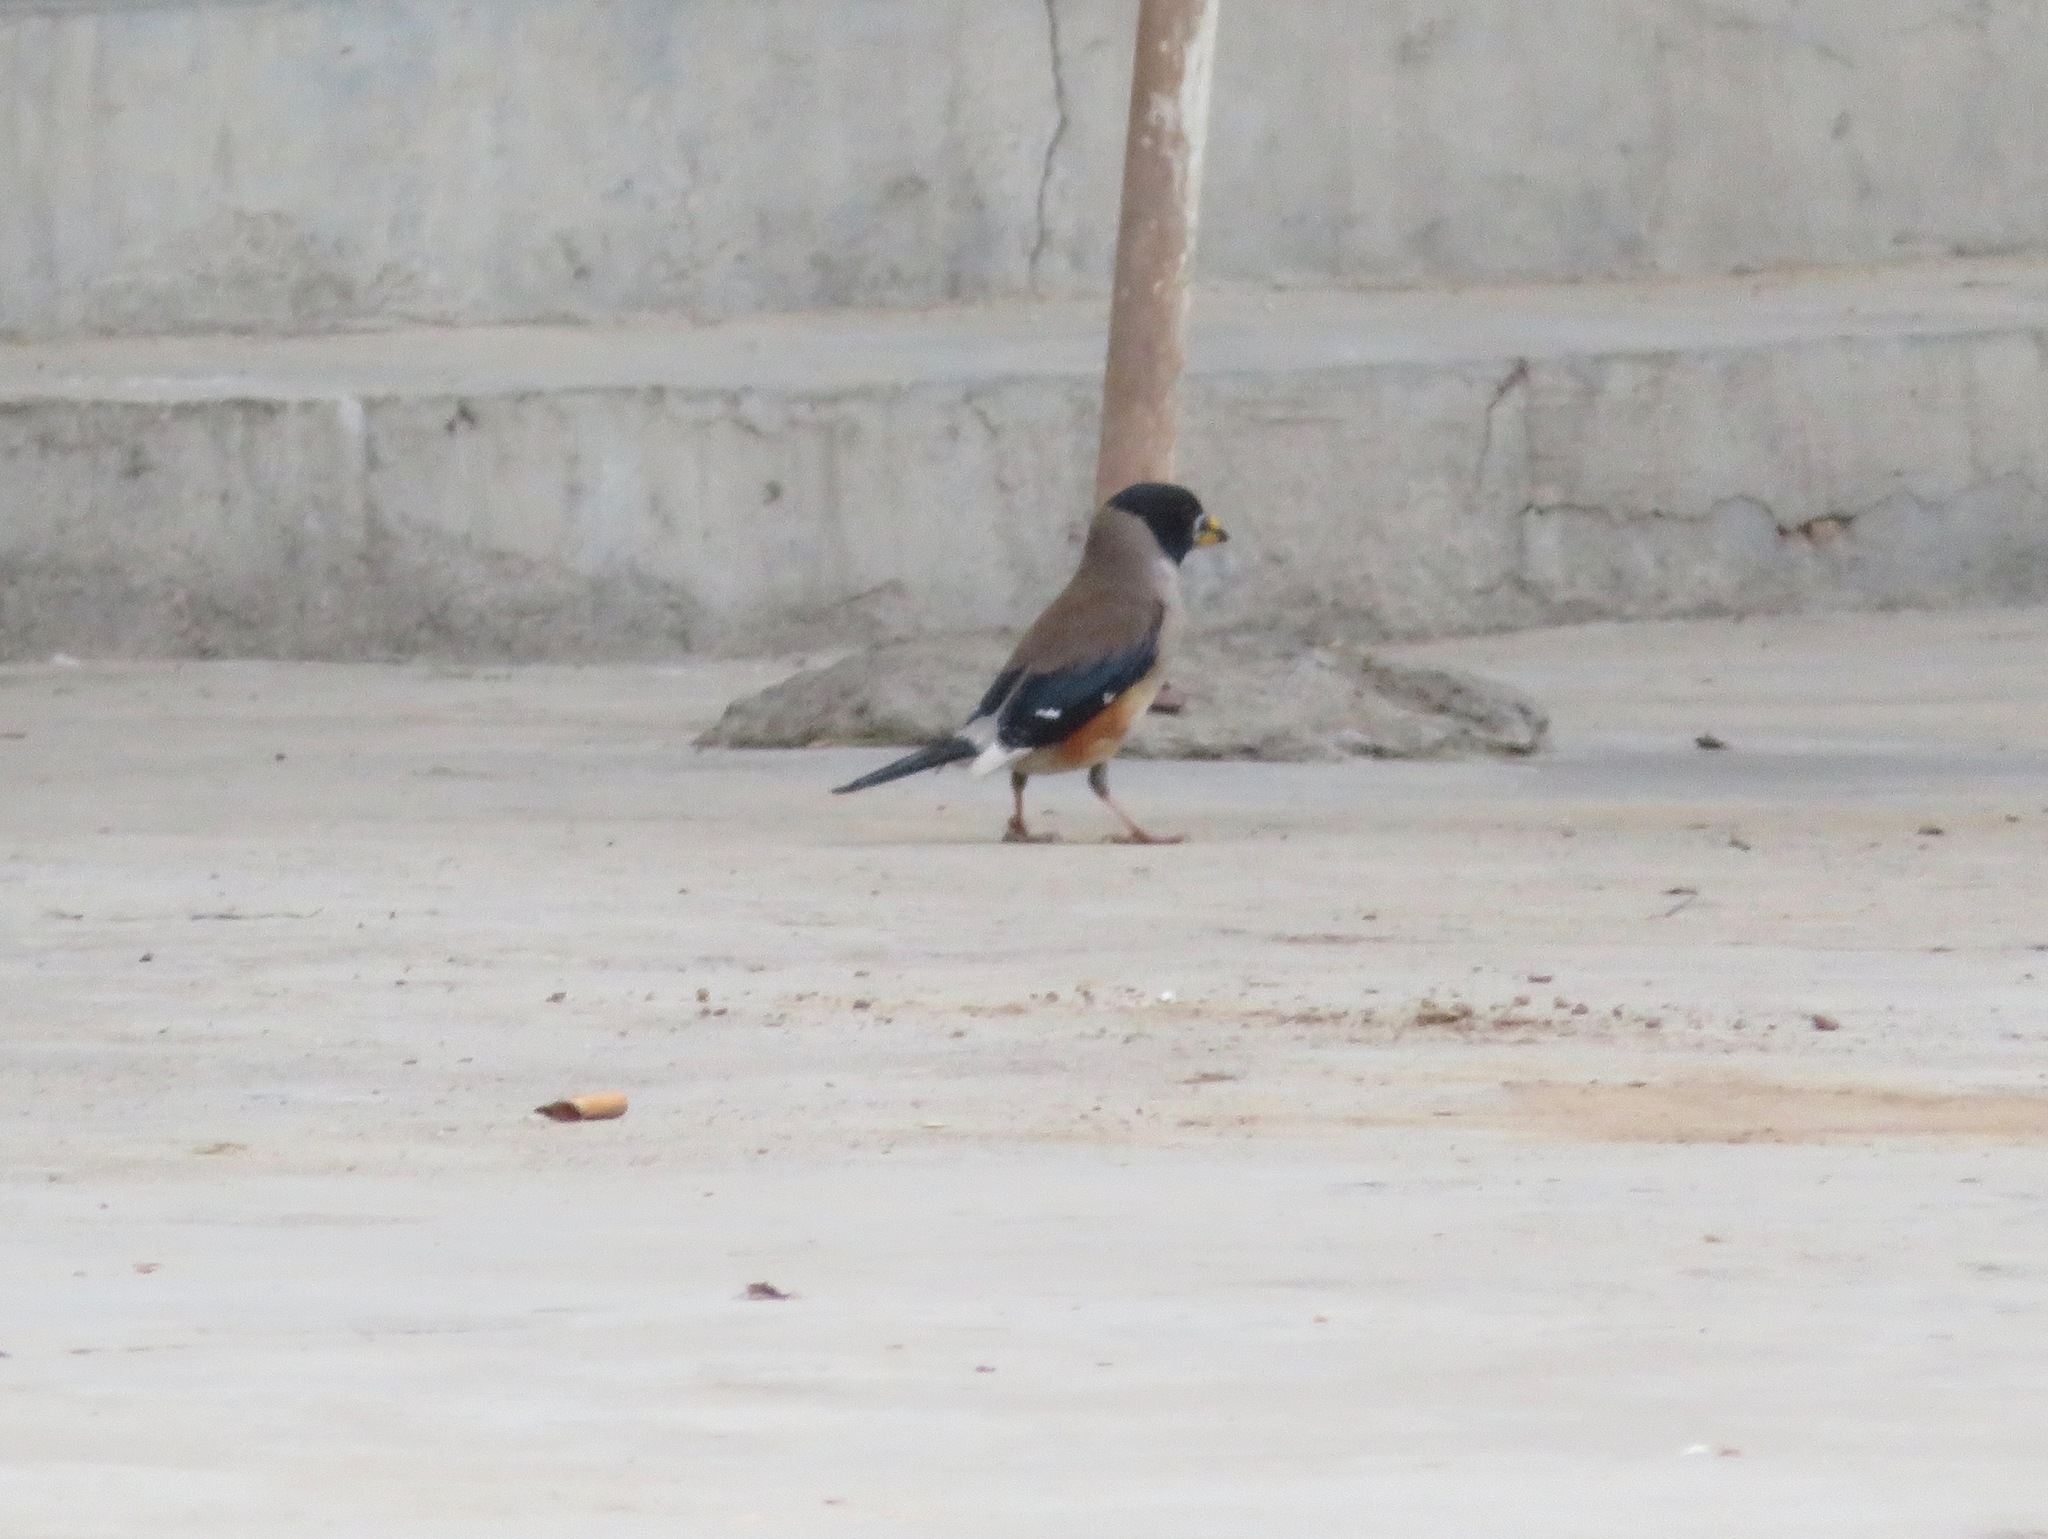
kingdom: Animalia
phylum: Chordata
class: Aves
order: Passeriformes
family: Fringillidae
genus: Eophona
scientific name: Eophona migratoria
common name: Yellow-billed grosbeak
